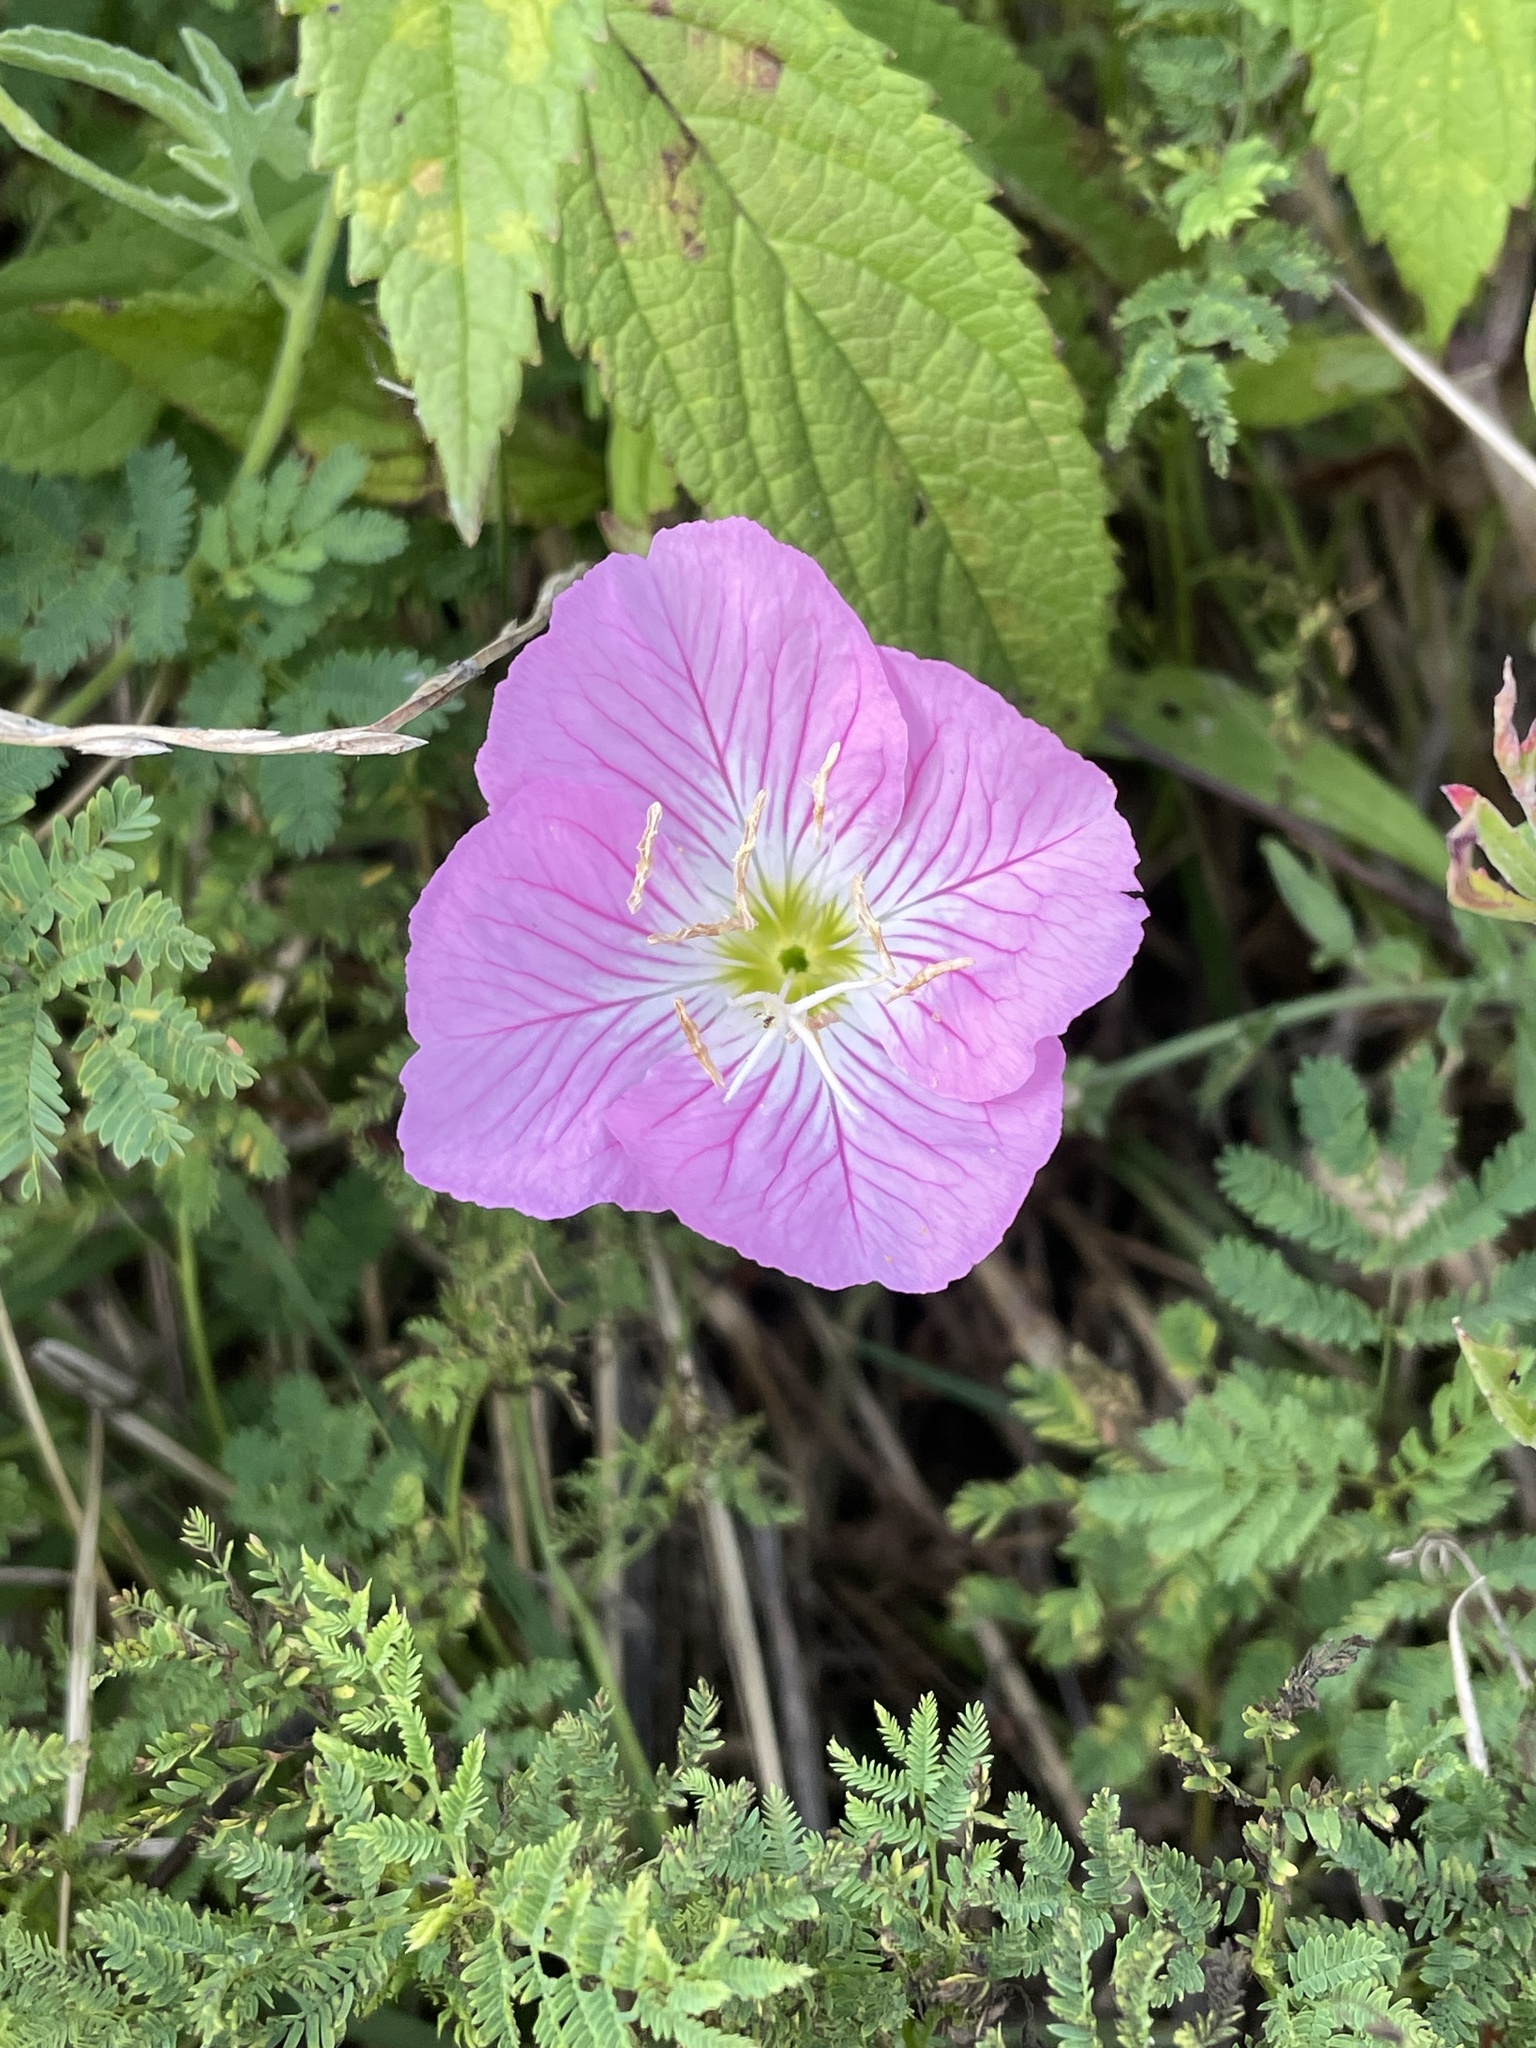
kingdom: Plantae
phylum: Tracheophyta
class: Magnoliopsida
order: Myrtales
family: Onagraceae
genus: Oenothera
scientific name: Oenothera speciosa
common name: White evening-primrose
